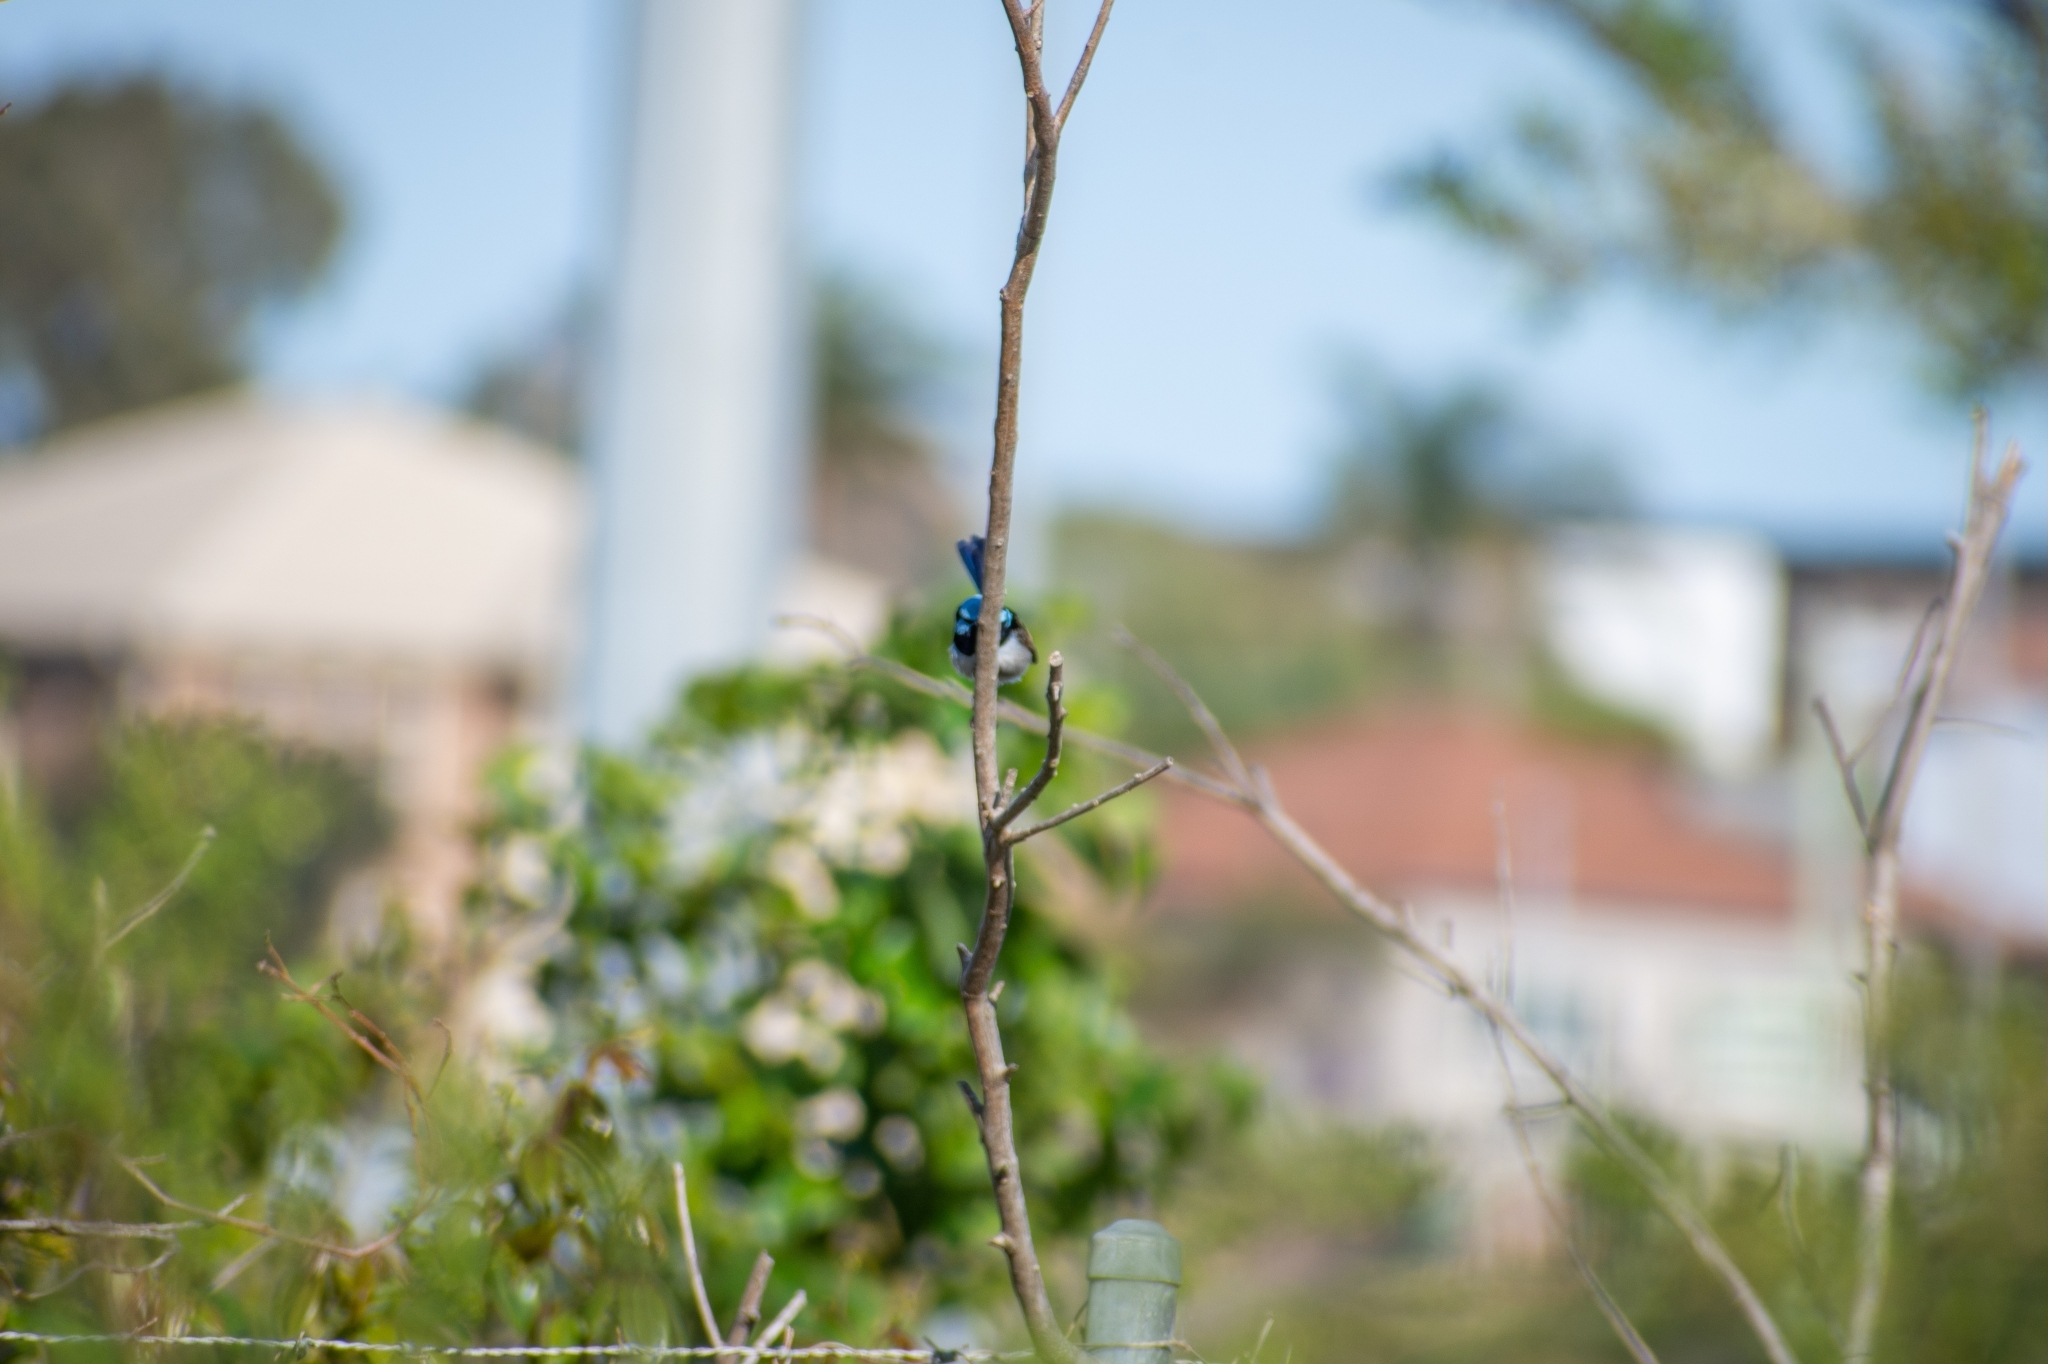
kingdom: Animalia
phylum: Chordata
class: Aves
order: Passeriformes
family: Maluridae
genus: Malurus
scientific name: Malurus cyaneus
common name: Superb fairywren
